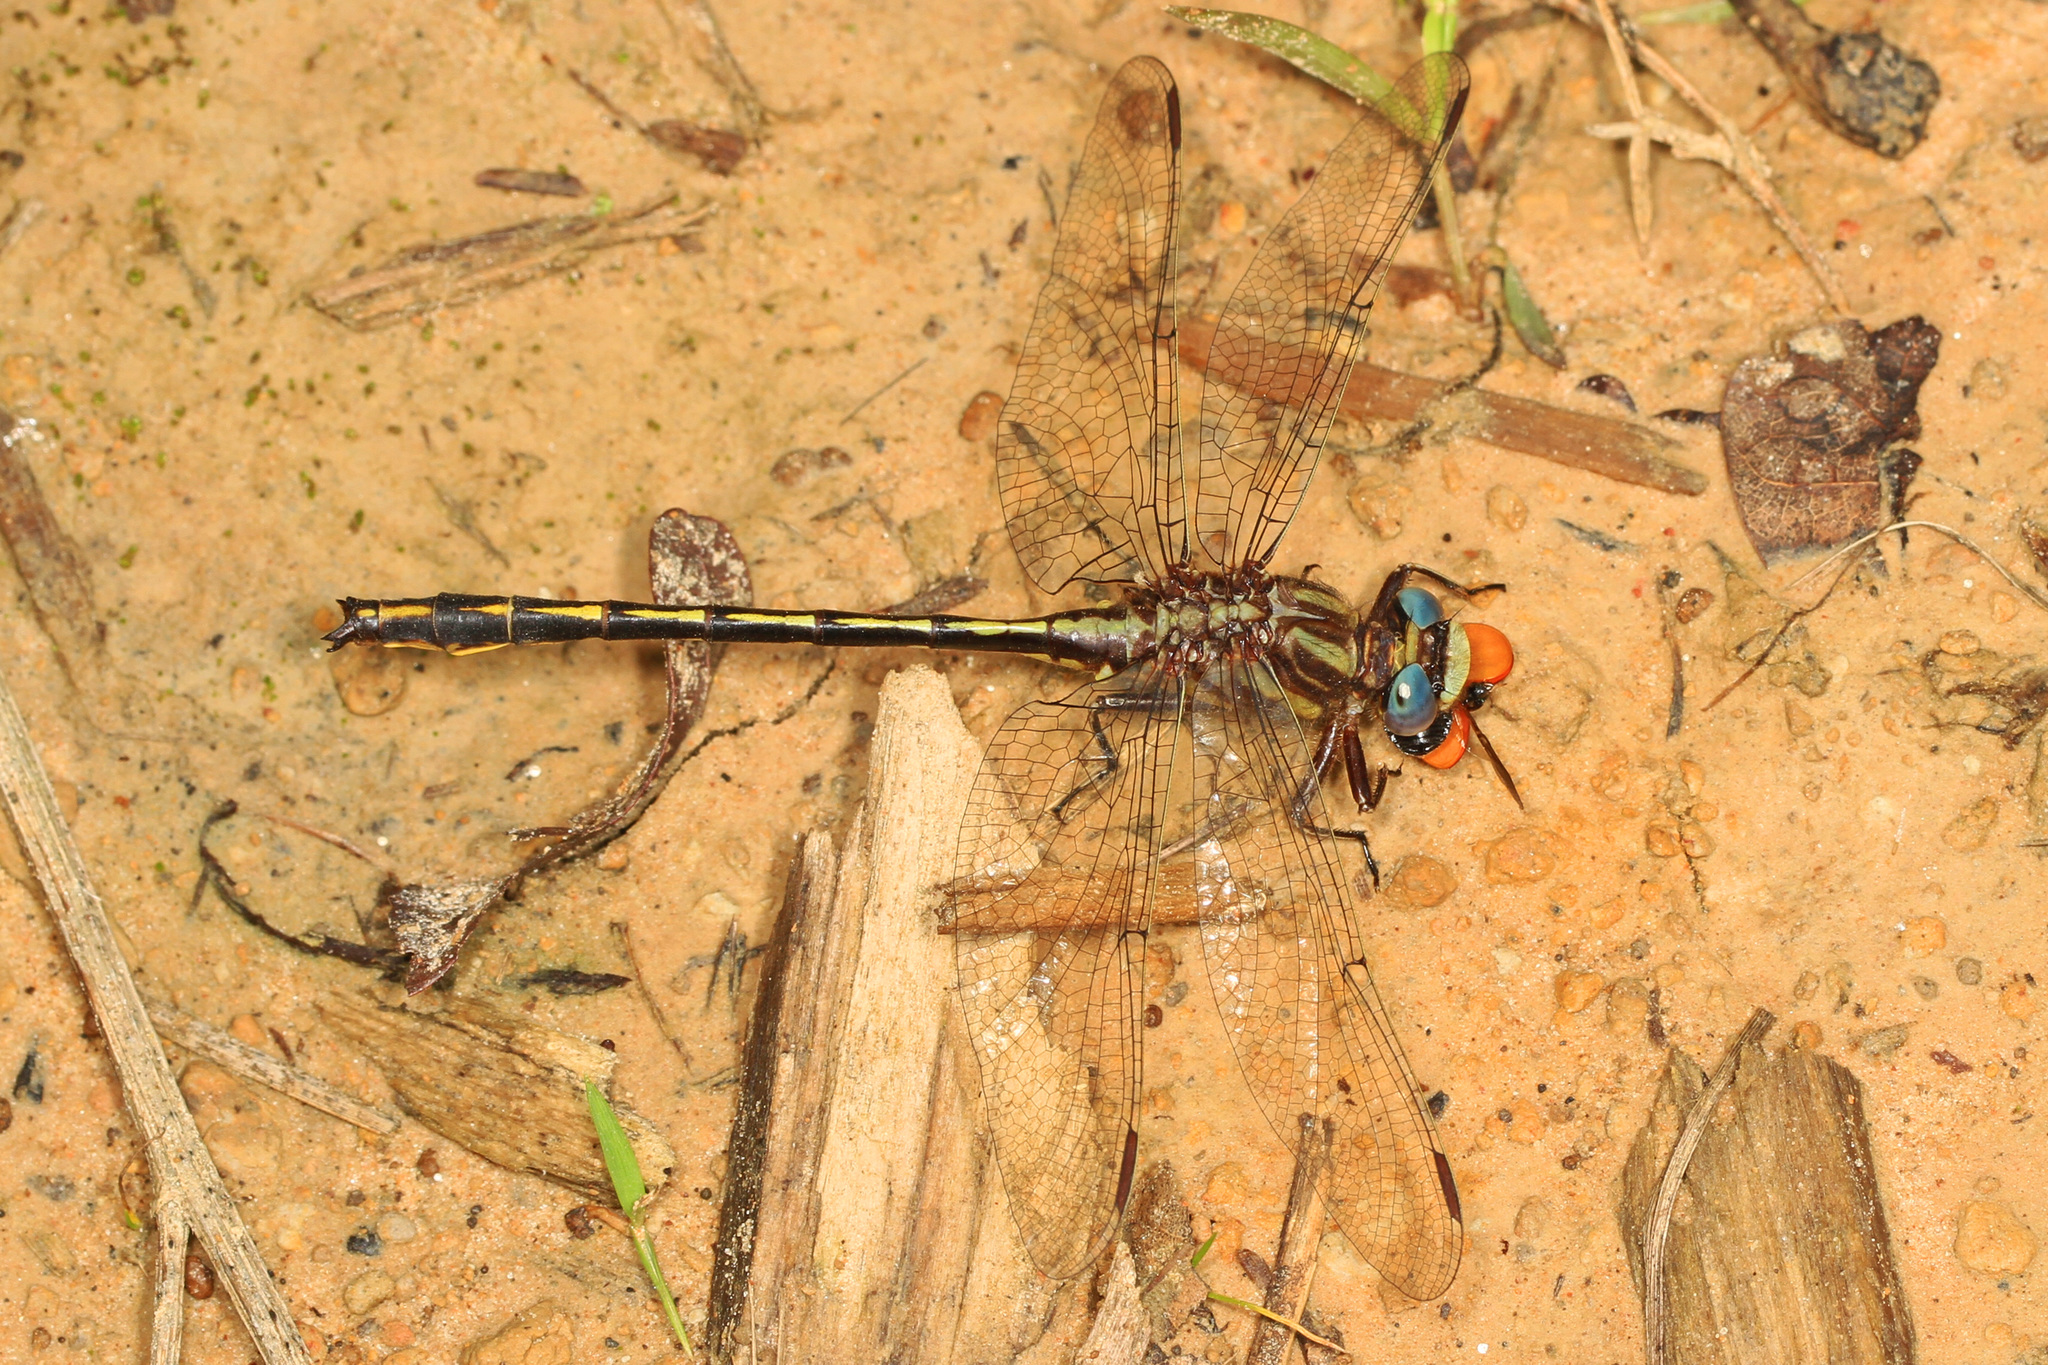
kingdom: Animalia
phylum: Arthropoda
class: Insecta
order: Odonata
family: Gomphidae
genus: Phanogomphus
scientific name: Phanogomphus oklahomensis
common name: Oklahoma clubtail
